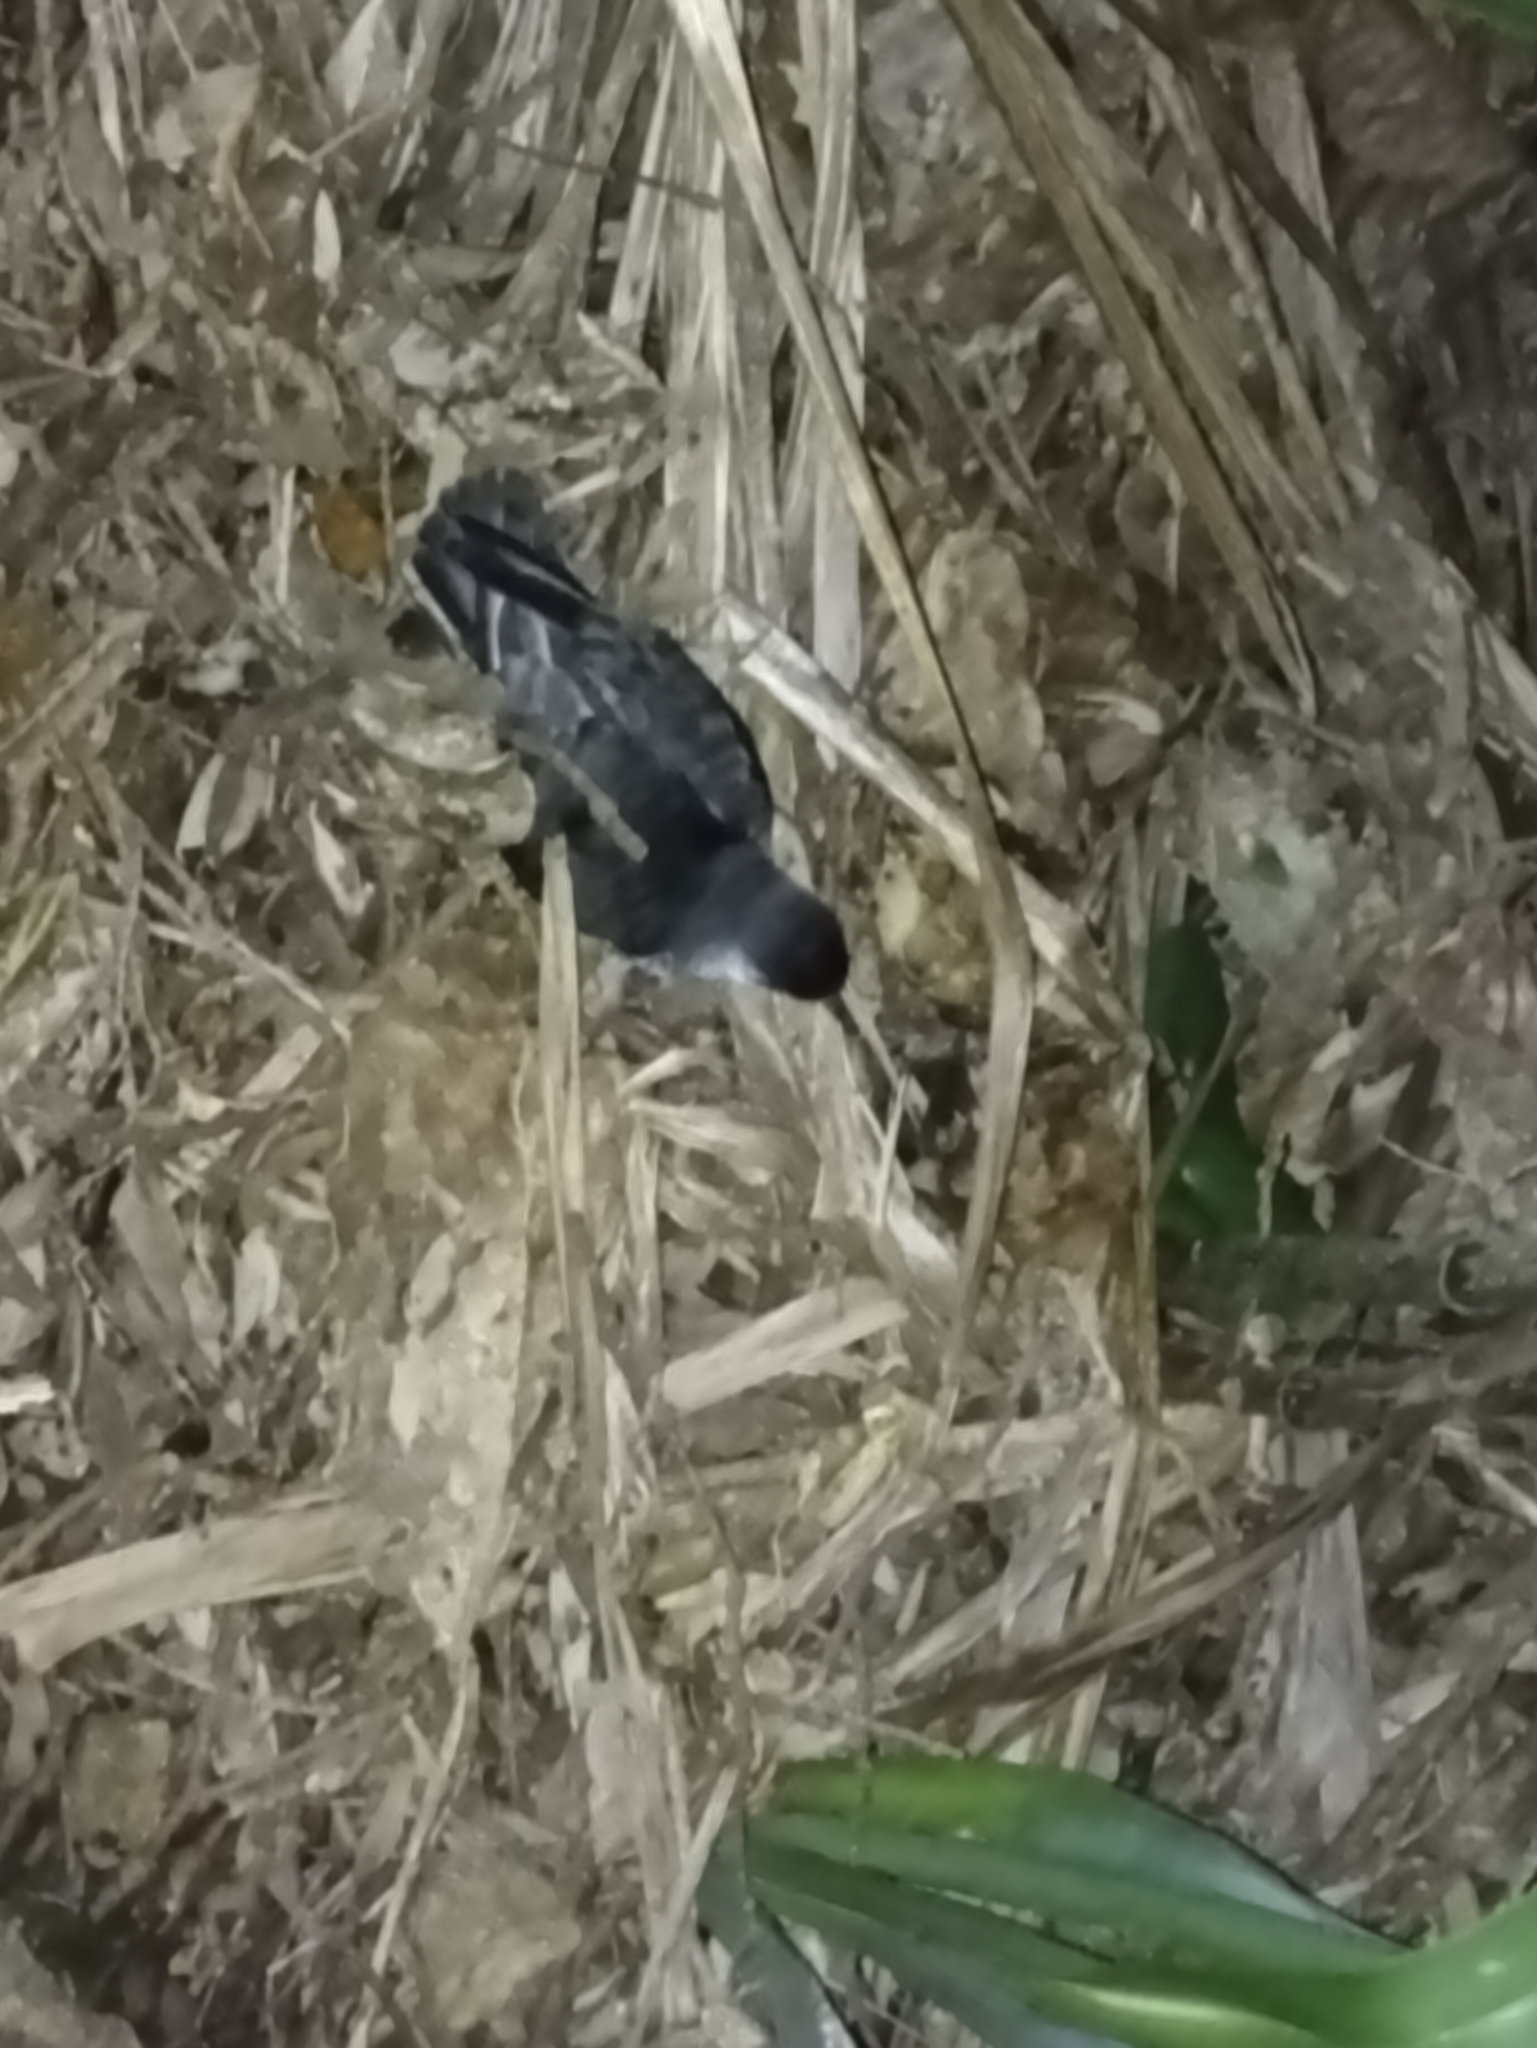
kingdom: Animalia
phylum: Chordata
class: Aves
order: Procellariiformes
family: Procellariidae
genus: Puffinus
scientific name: Puffinus assimilis
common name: Little shearwater
